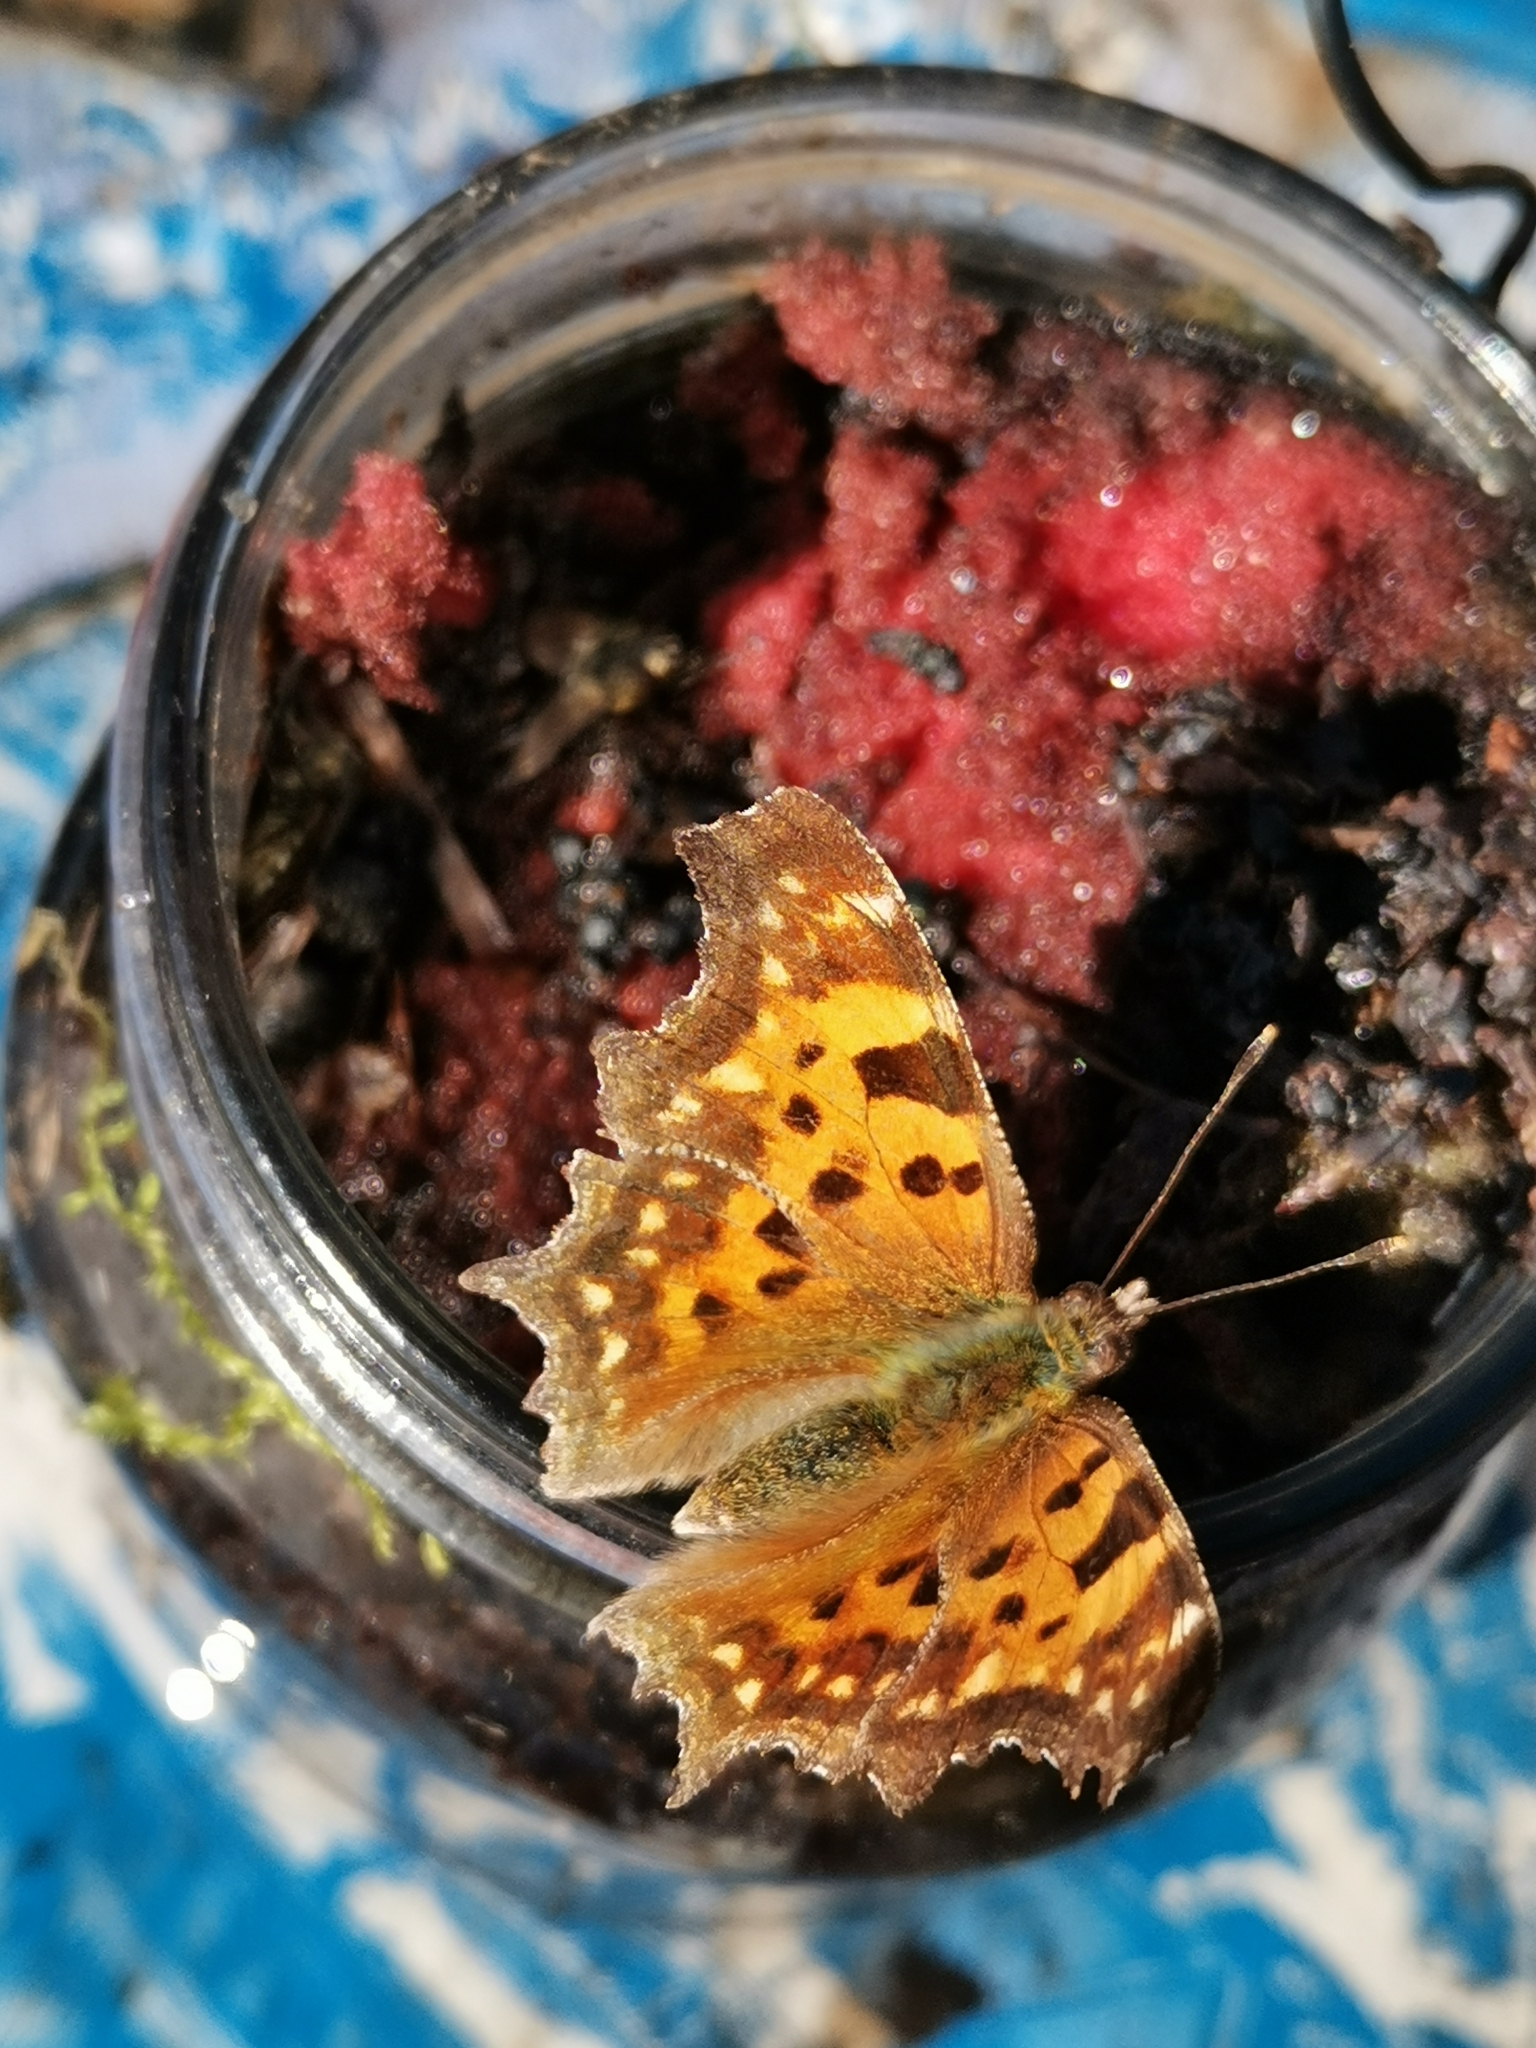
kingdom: Animalia
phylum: Arthropoda
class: Insecta
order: Lepidoptera
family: Nymphalidae
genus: Polygonia
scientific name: Polygonia c-album
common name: Comma
